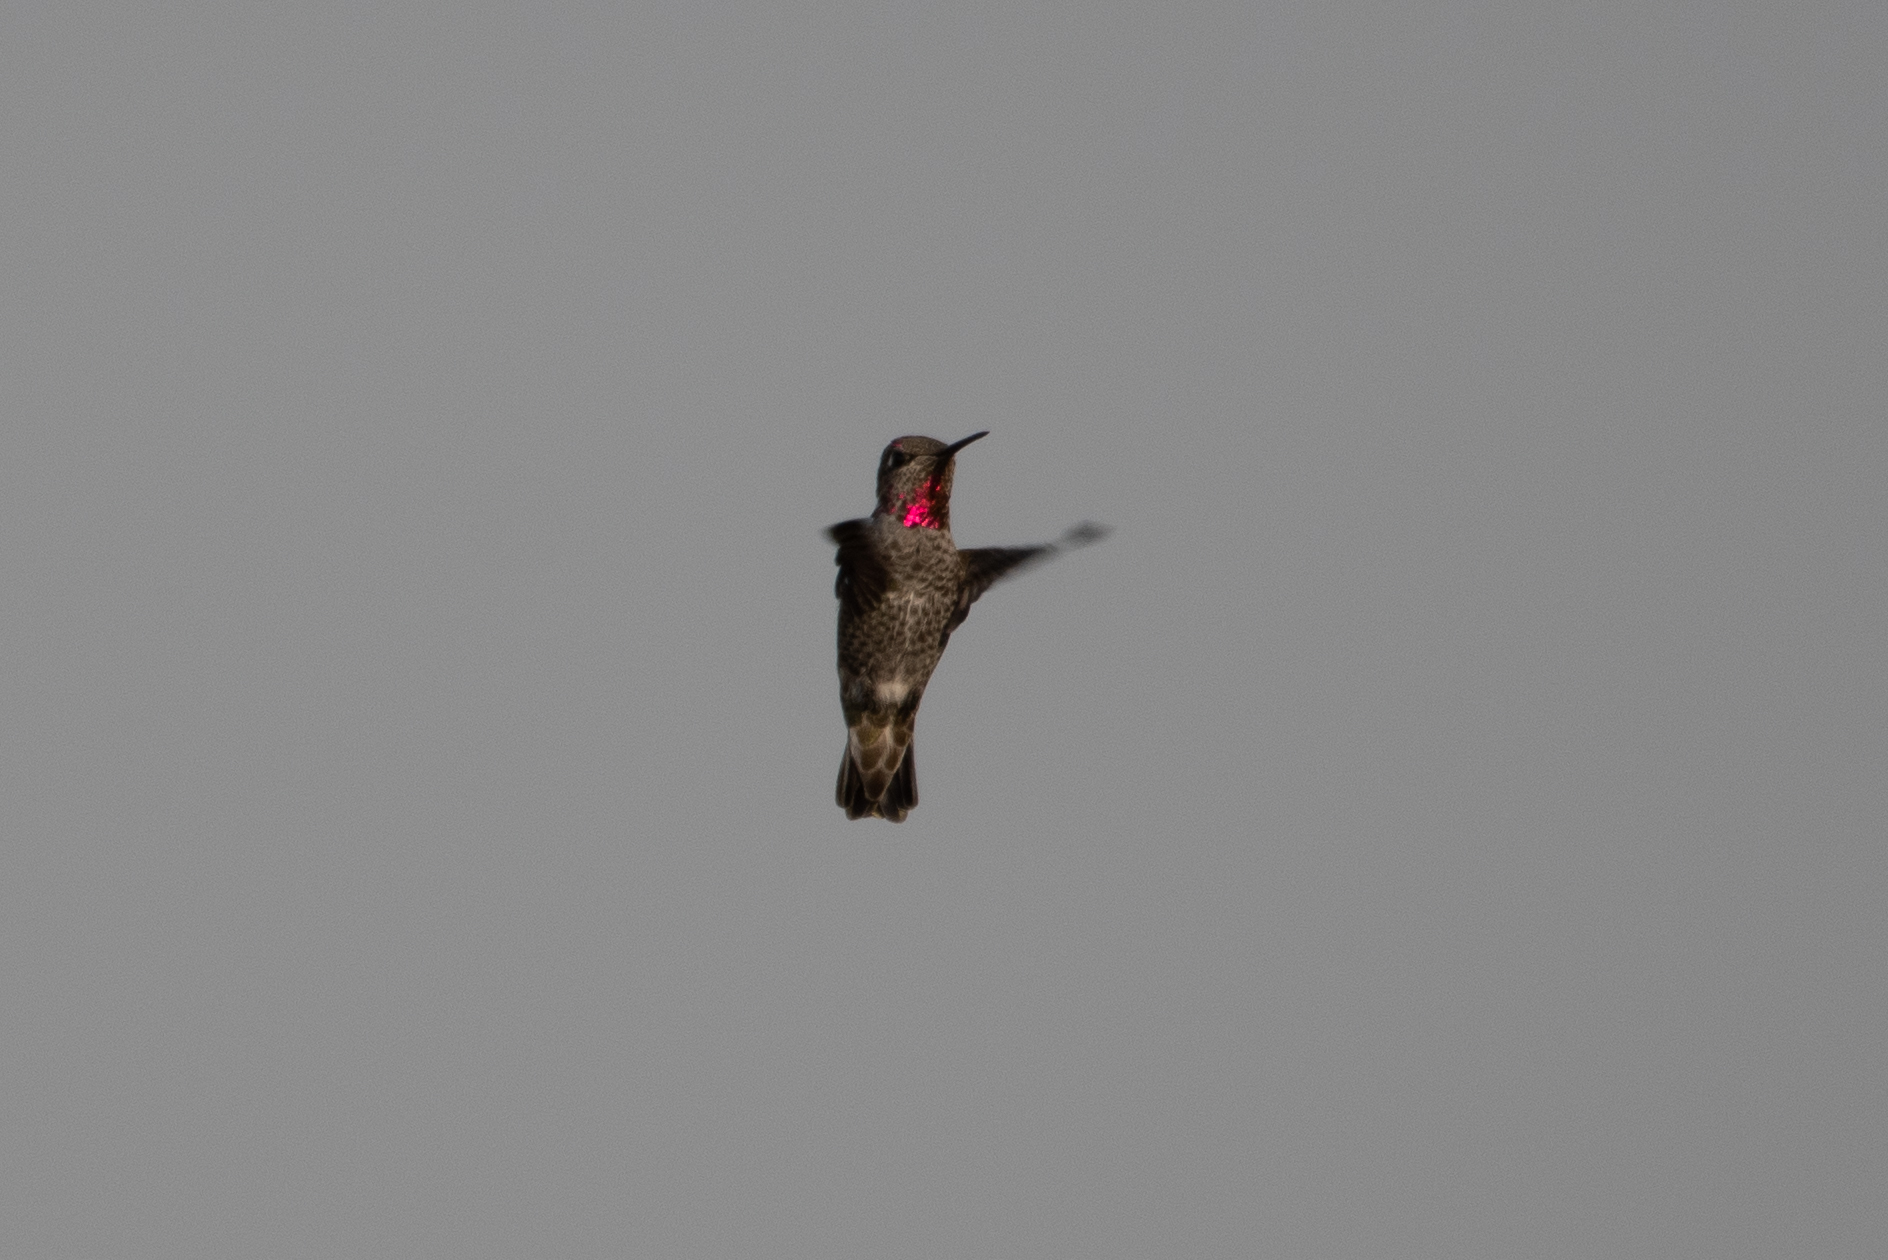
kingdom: Animalia
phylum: Chordata
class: Aves
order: Apodiformes
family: Trochilidae
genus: Calypte
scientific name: Calypte anna
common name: Anna's hummingbird
